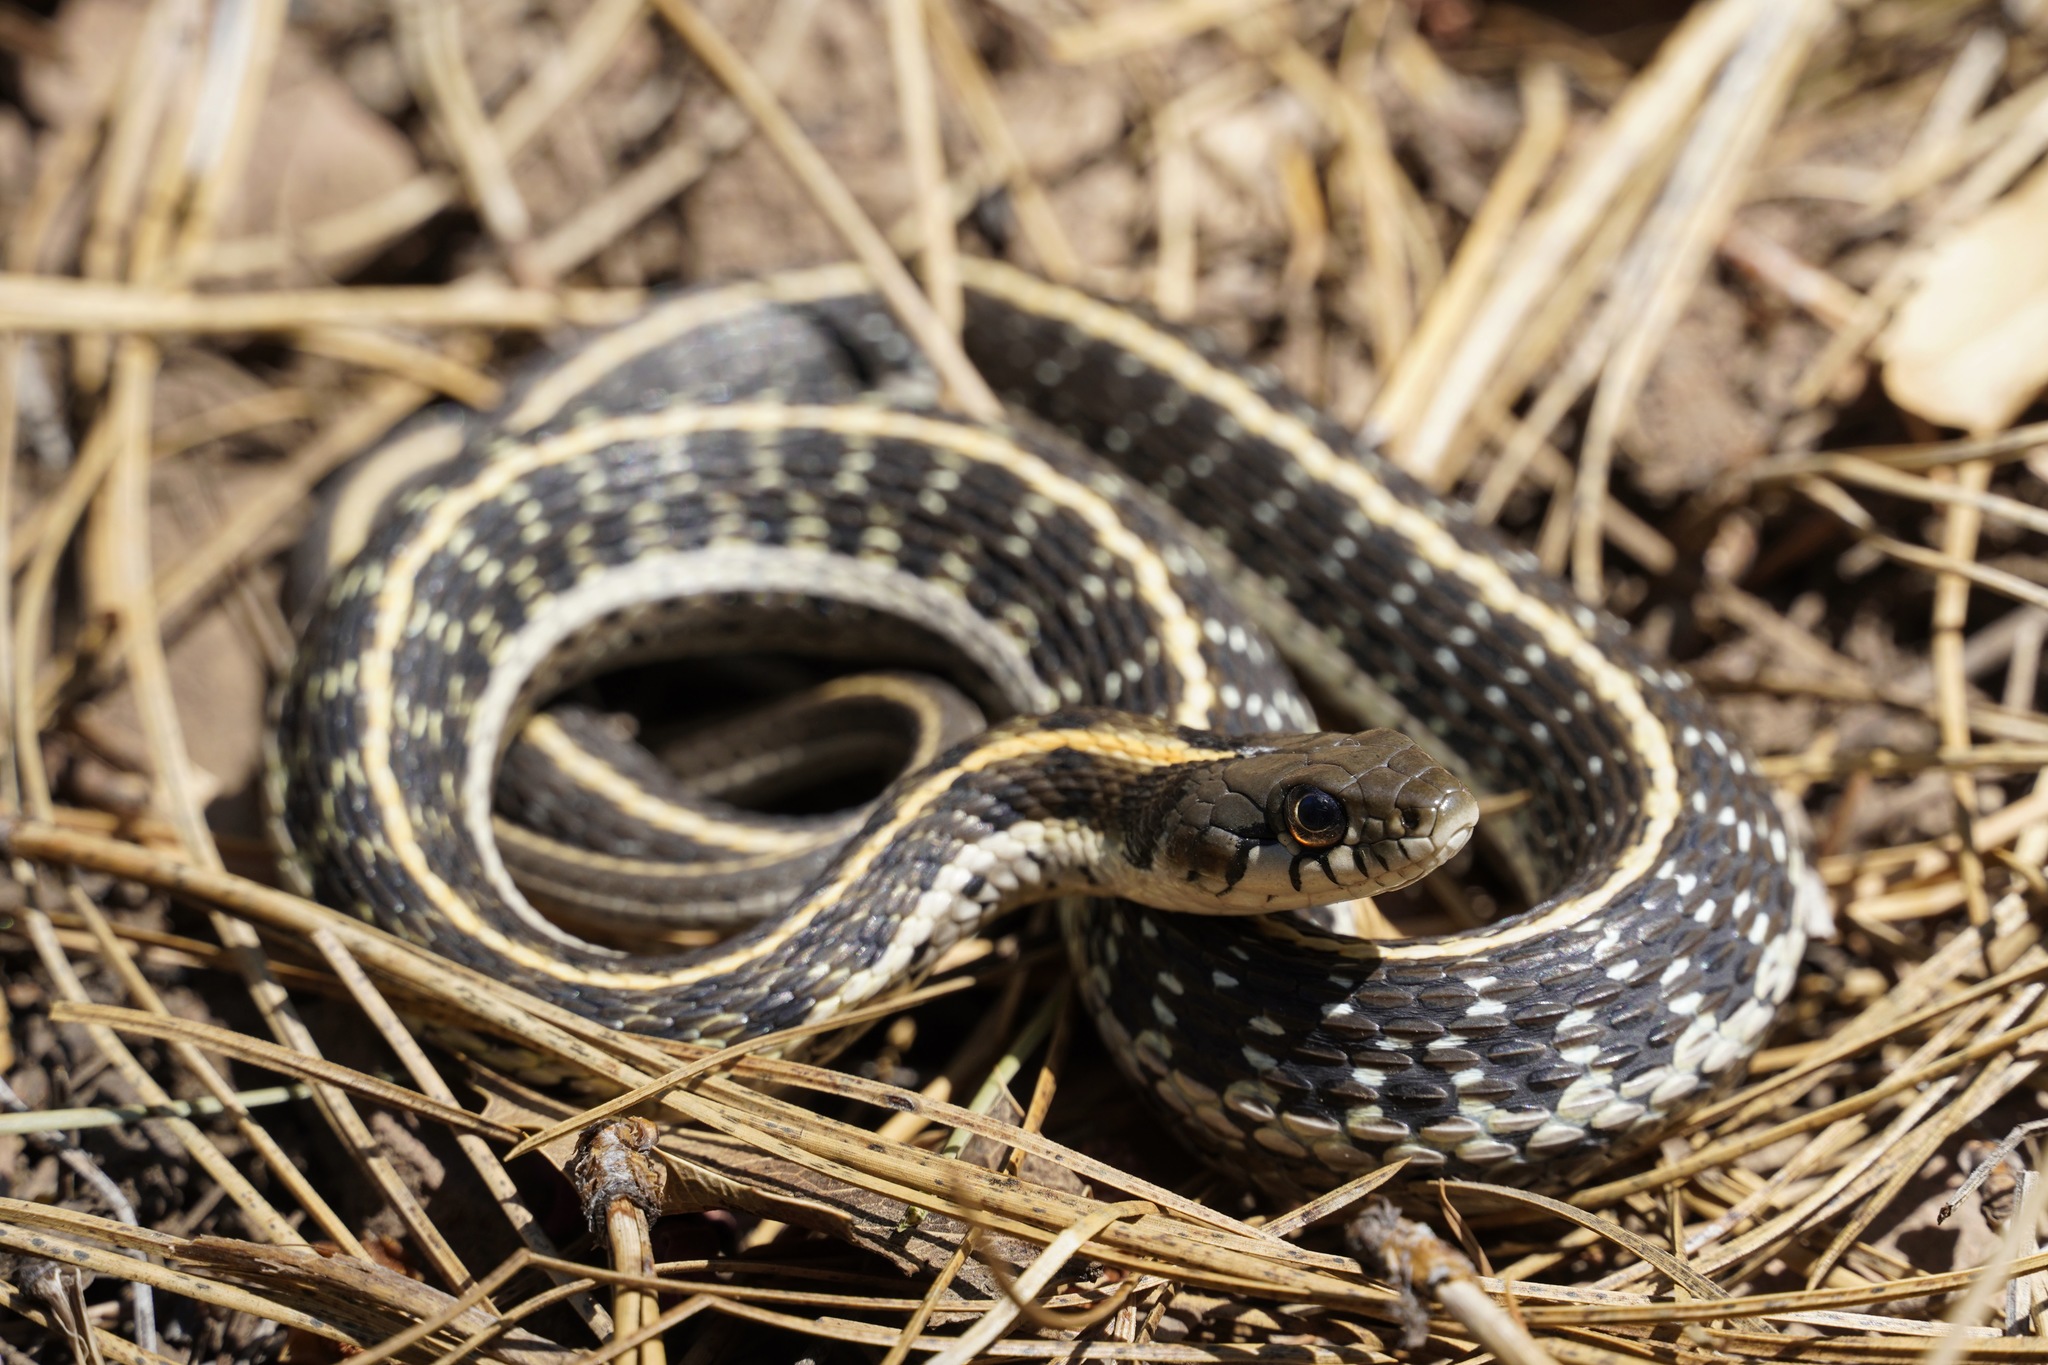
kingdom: Animalia
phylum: Chordata
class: Squamata
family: Colubridae
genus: Thamnophis
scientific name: Thamnophis cyrtopsis
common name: Black-necked gartersnake
